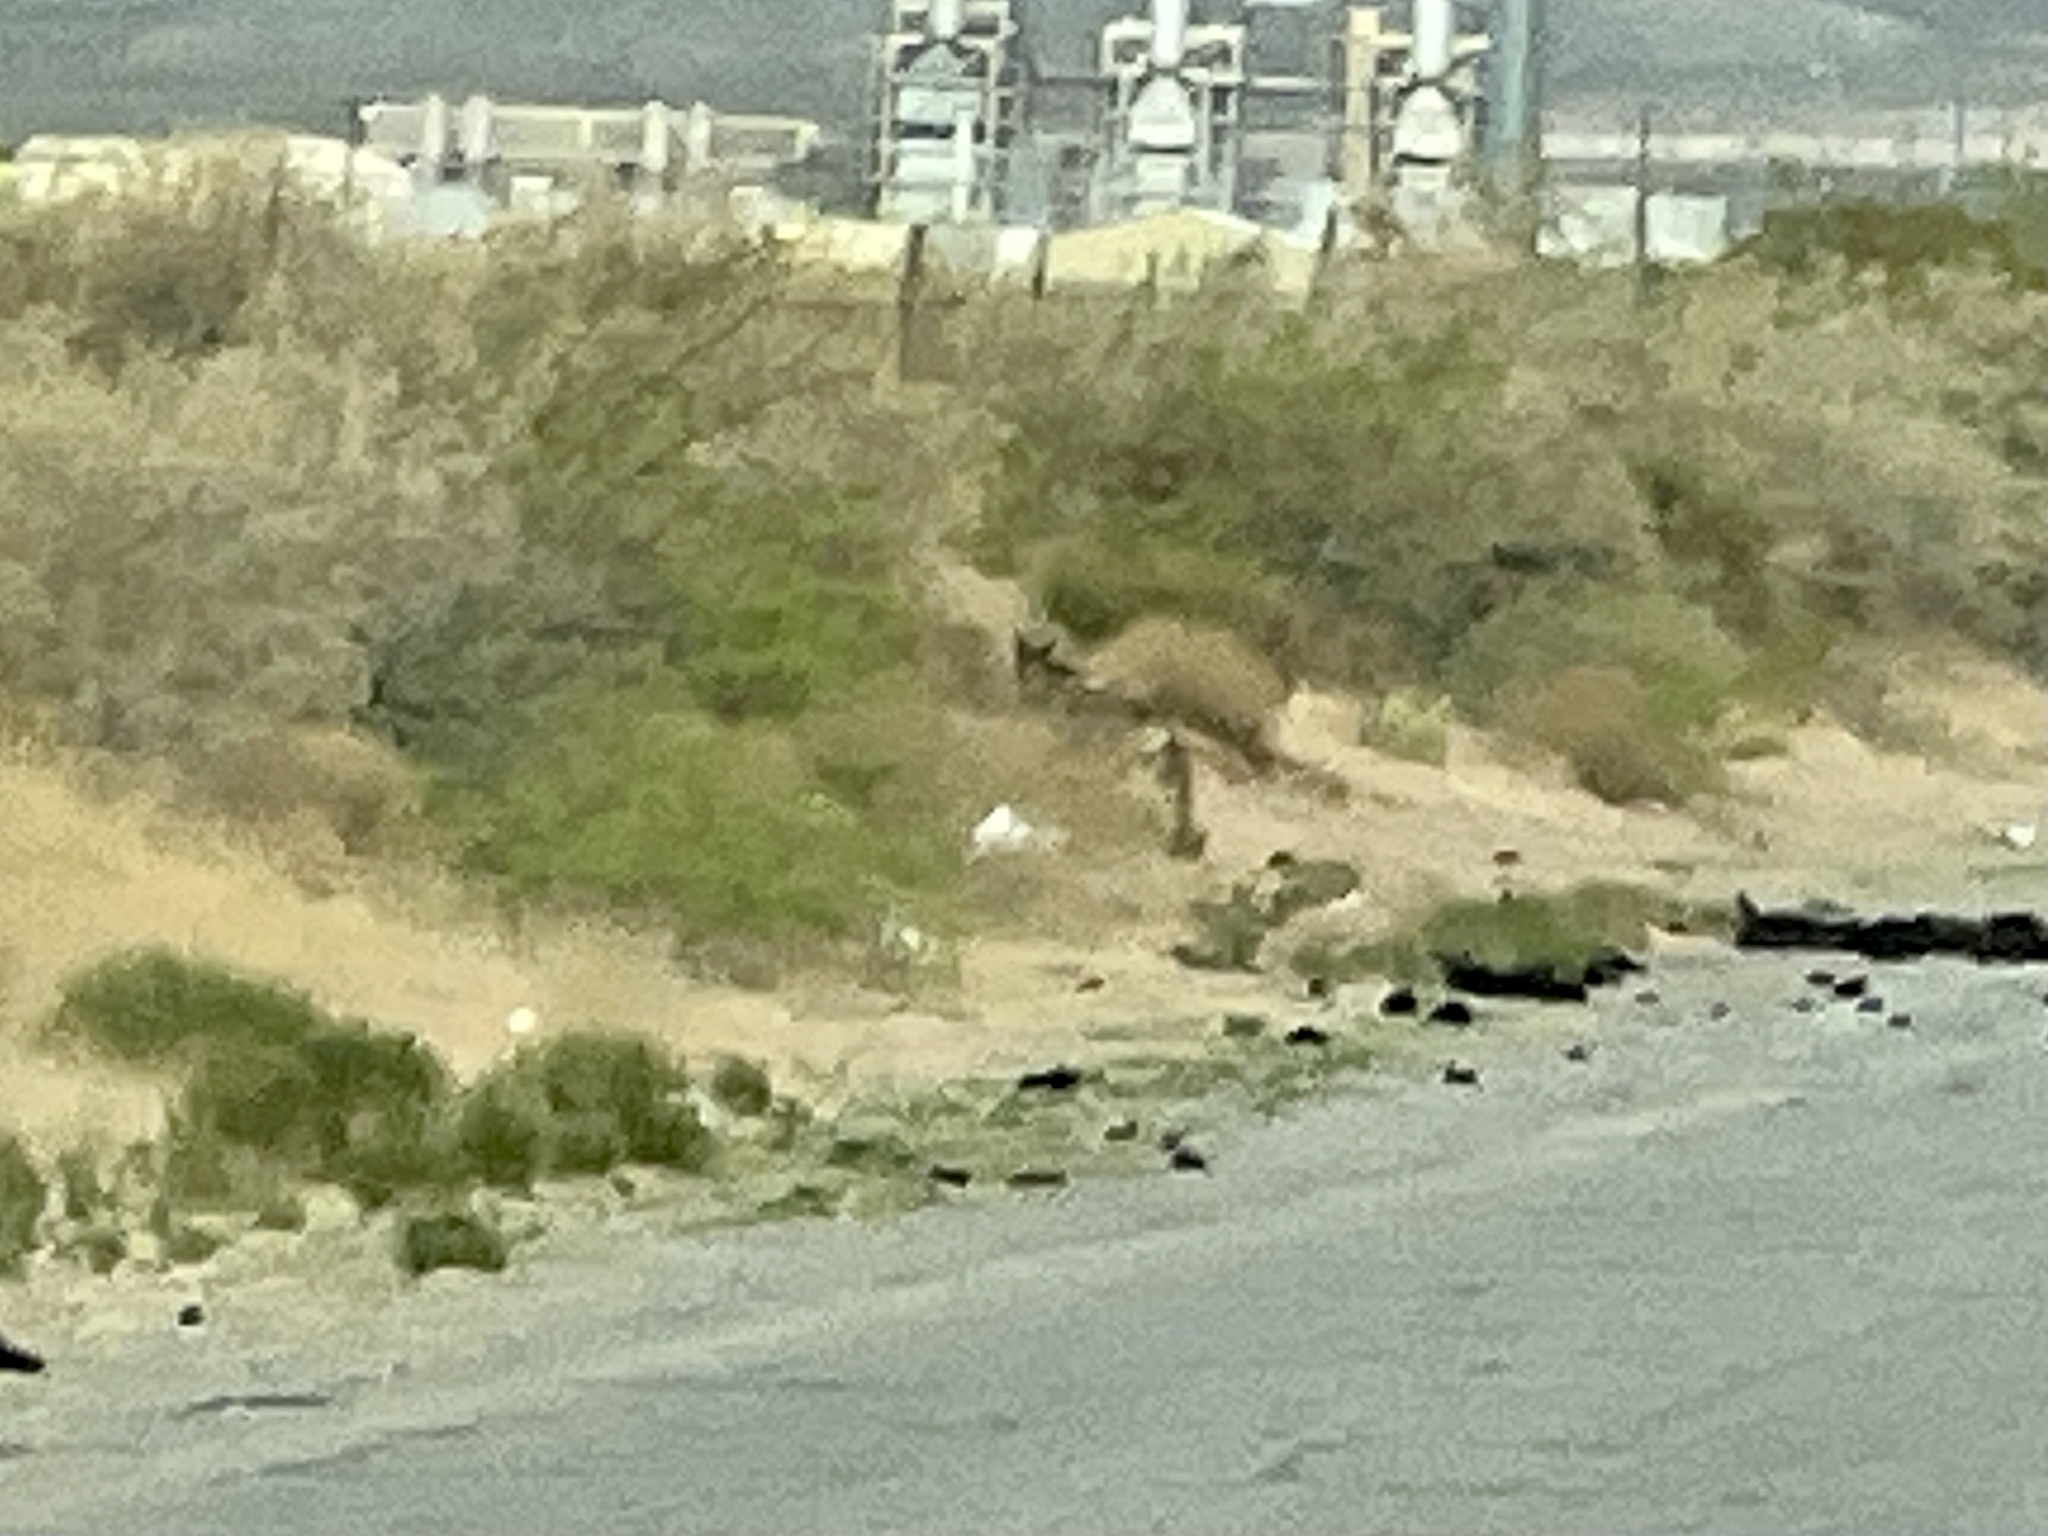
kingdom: Animalia
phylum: Chordata
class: Mammalia
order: Carnivora
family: Canidae
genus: Canis
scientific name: Canis latrans
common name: Coyote
